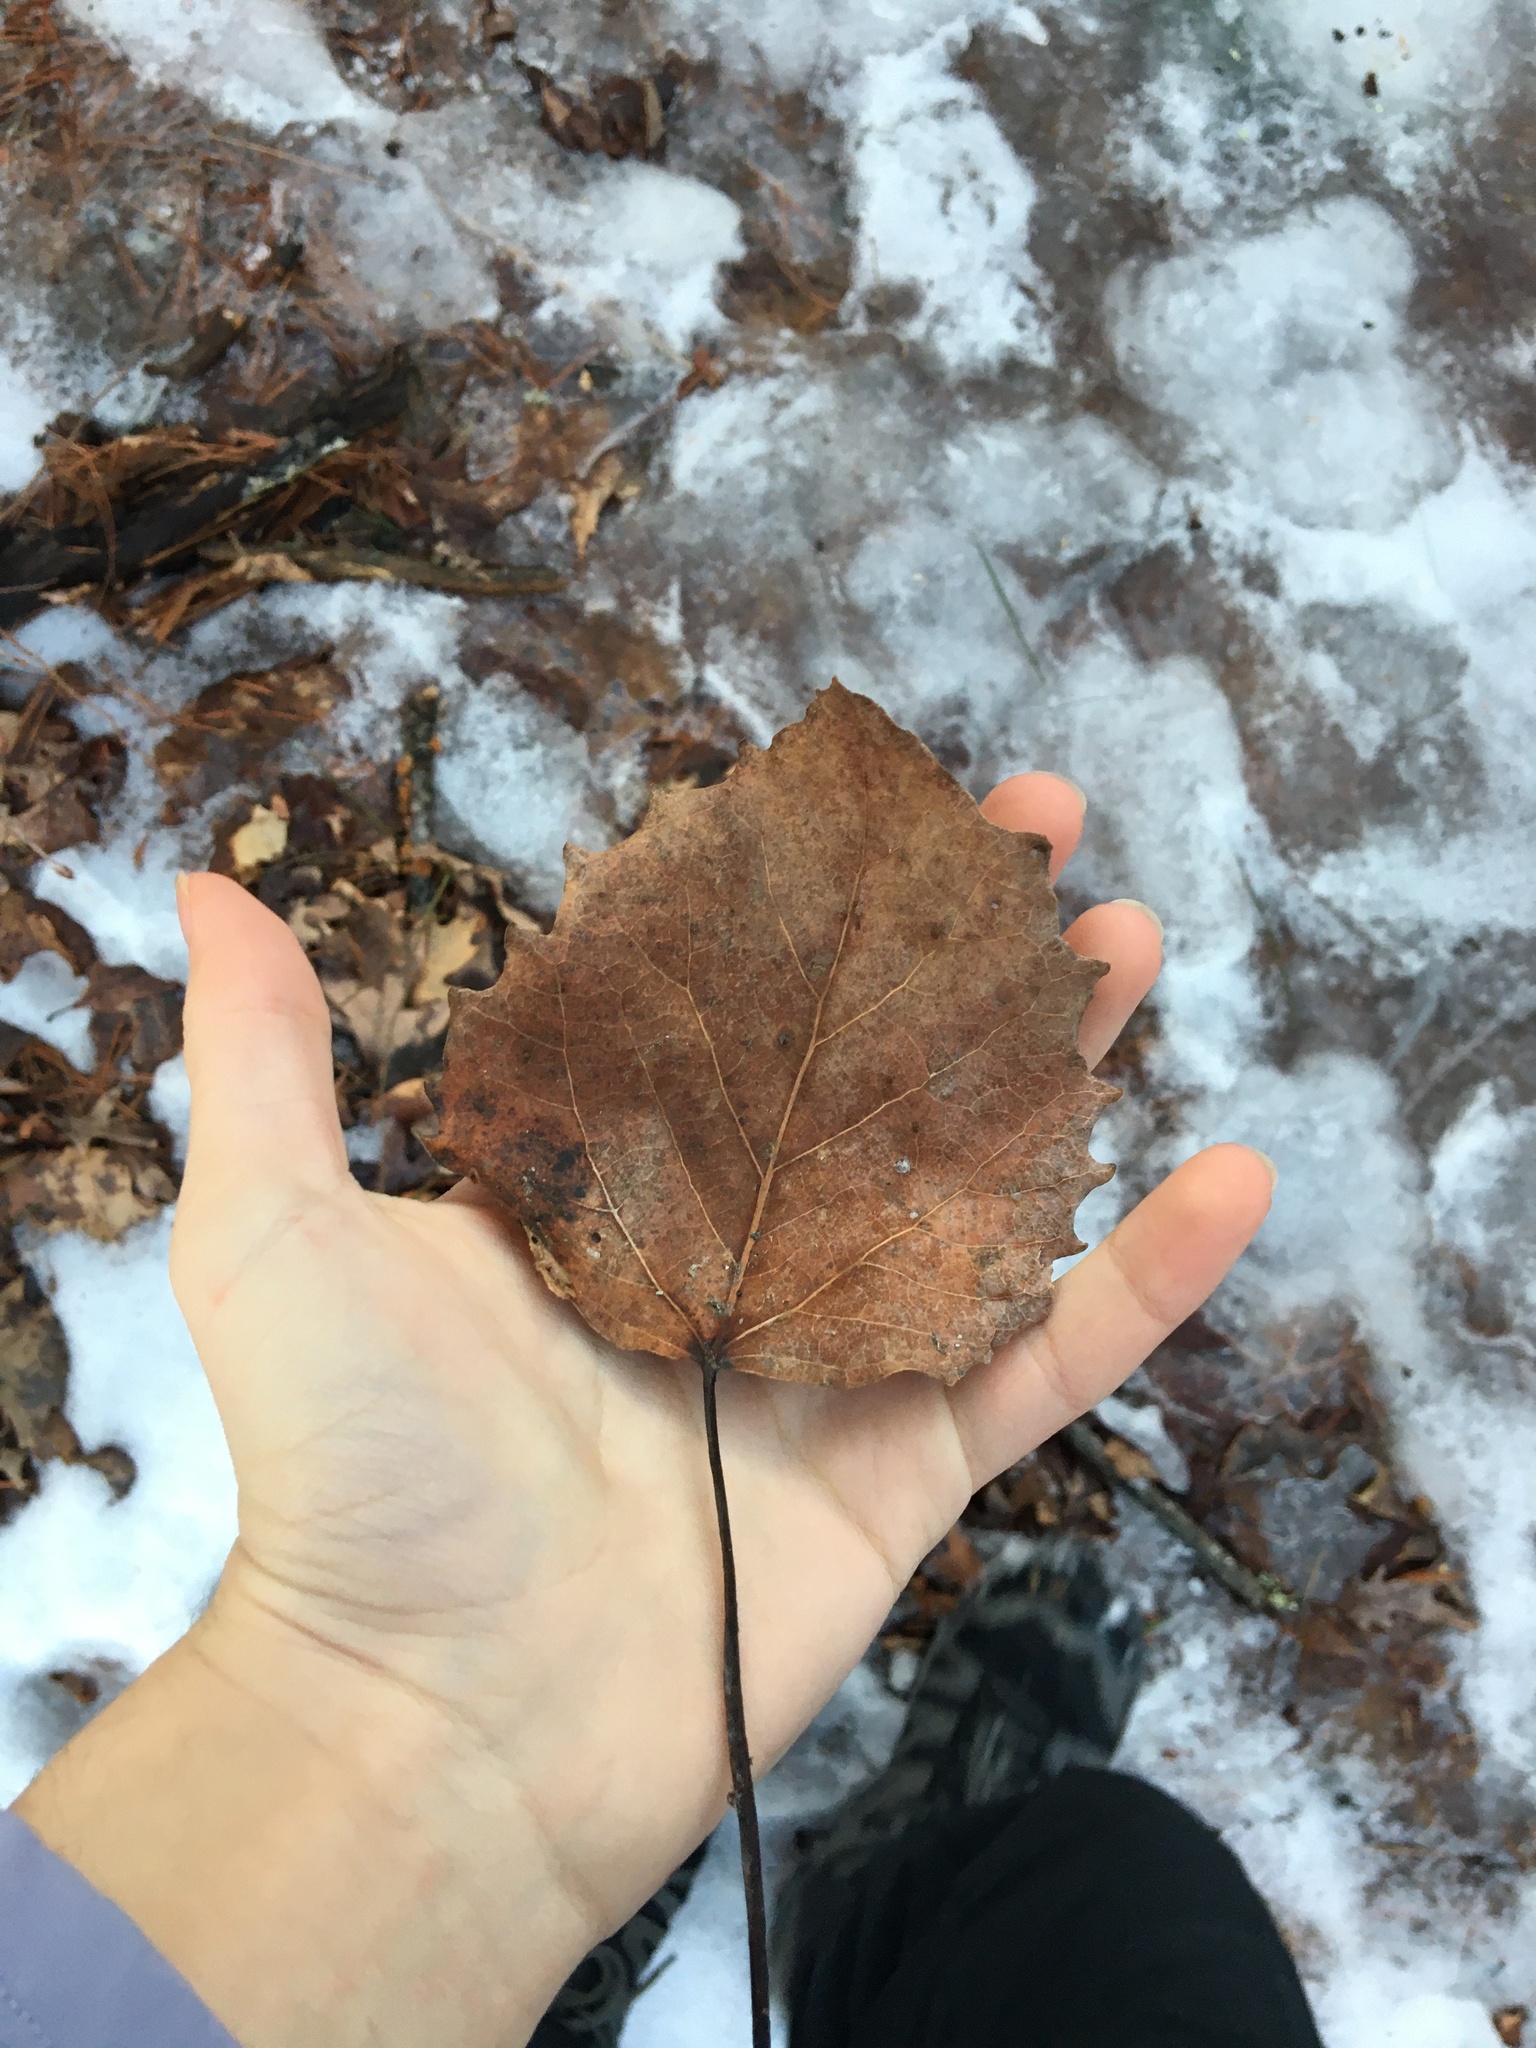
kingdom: Plantae
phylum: Tracheophyta
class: Magnoliopsida
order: Malpighiales
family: Salicaceae
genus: Populus
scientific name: Populus grandidentata
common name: Bigtooth aspen
